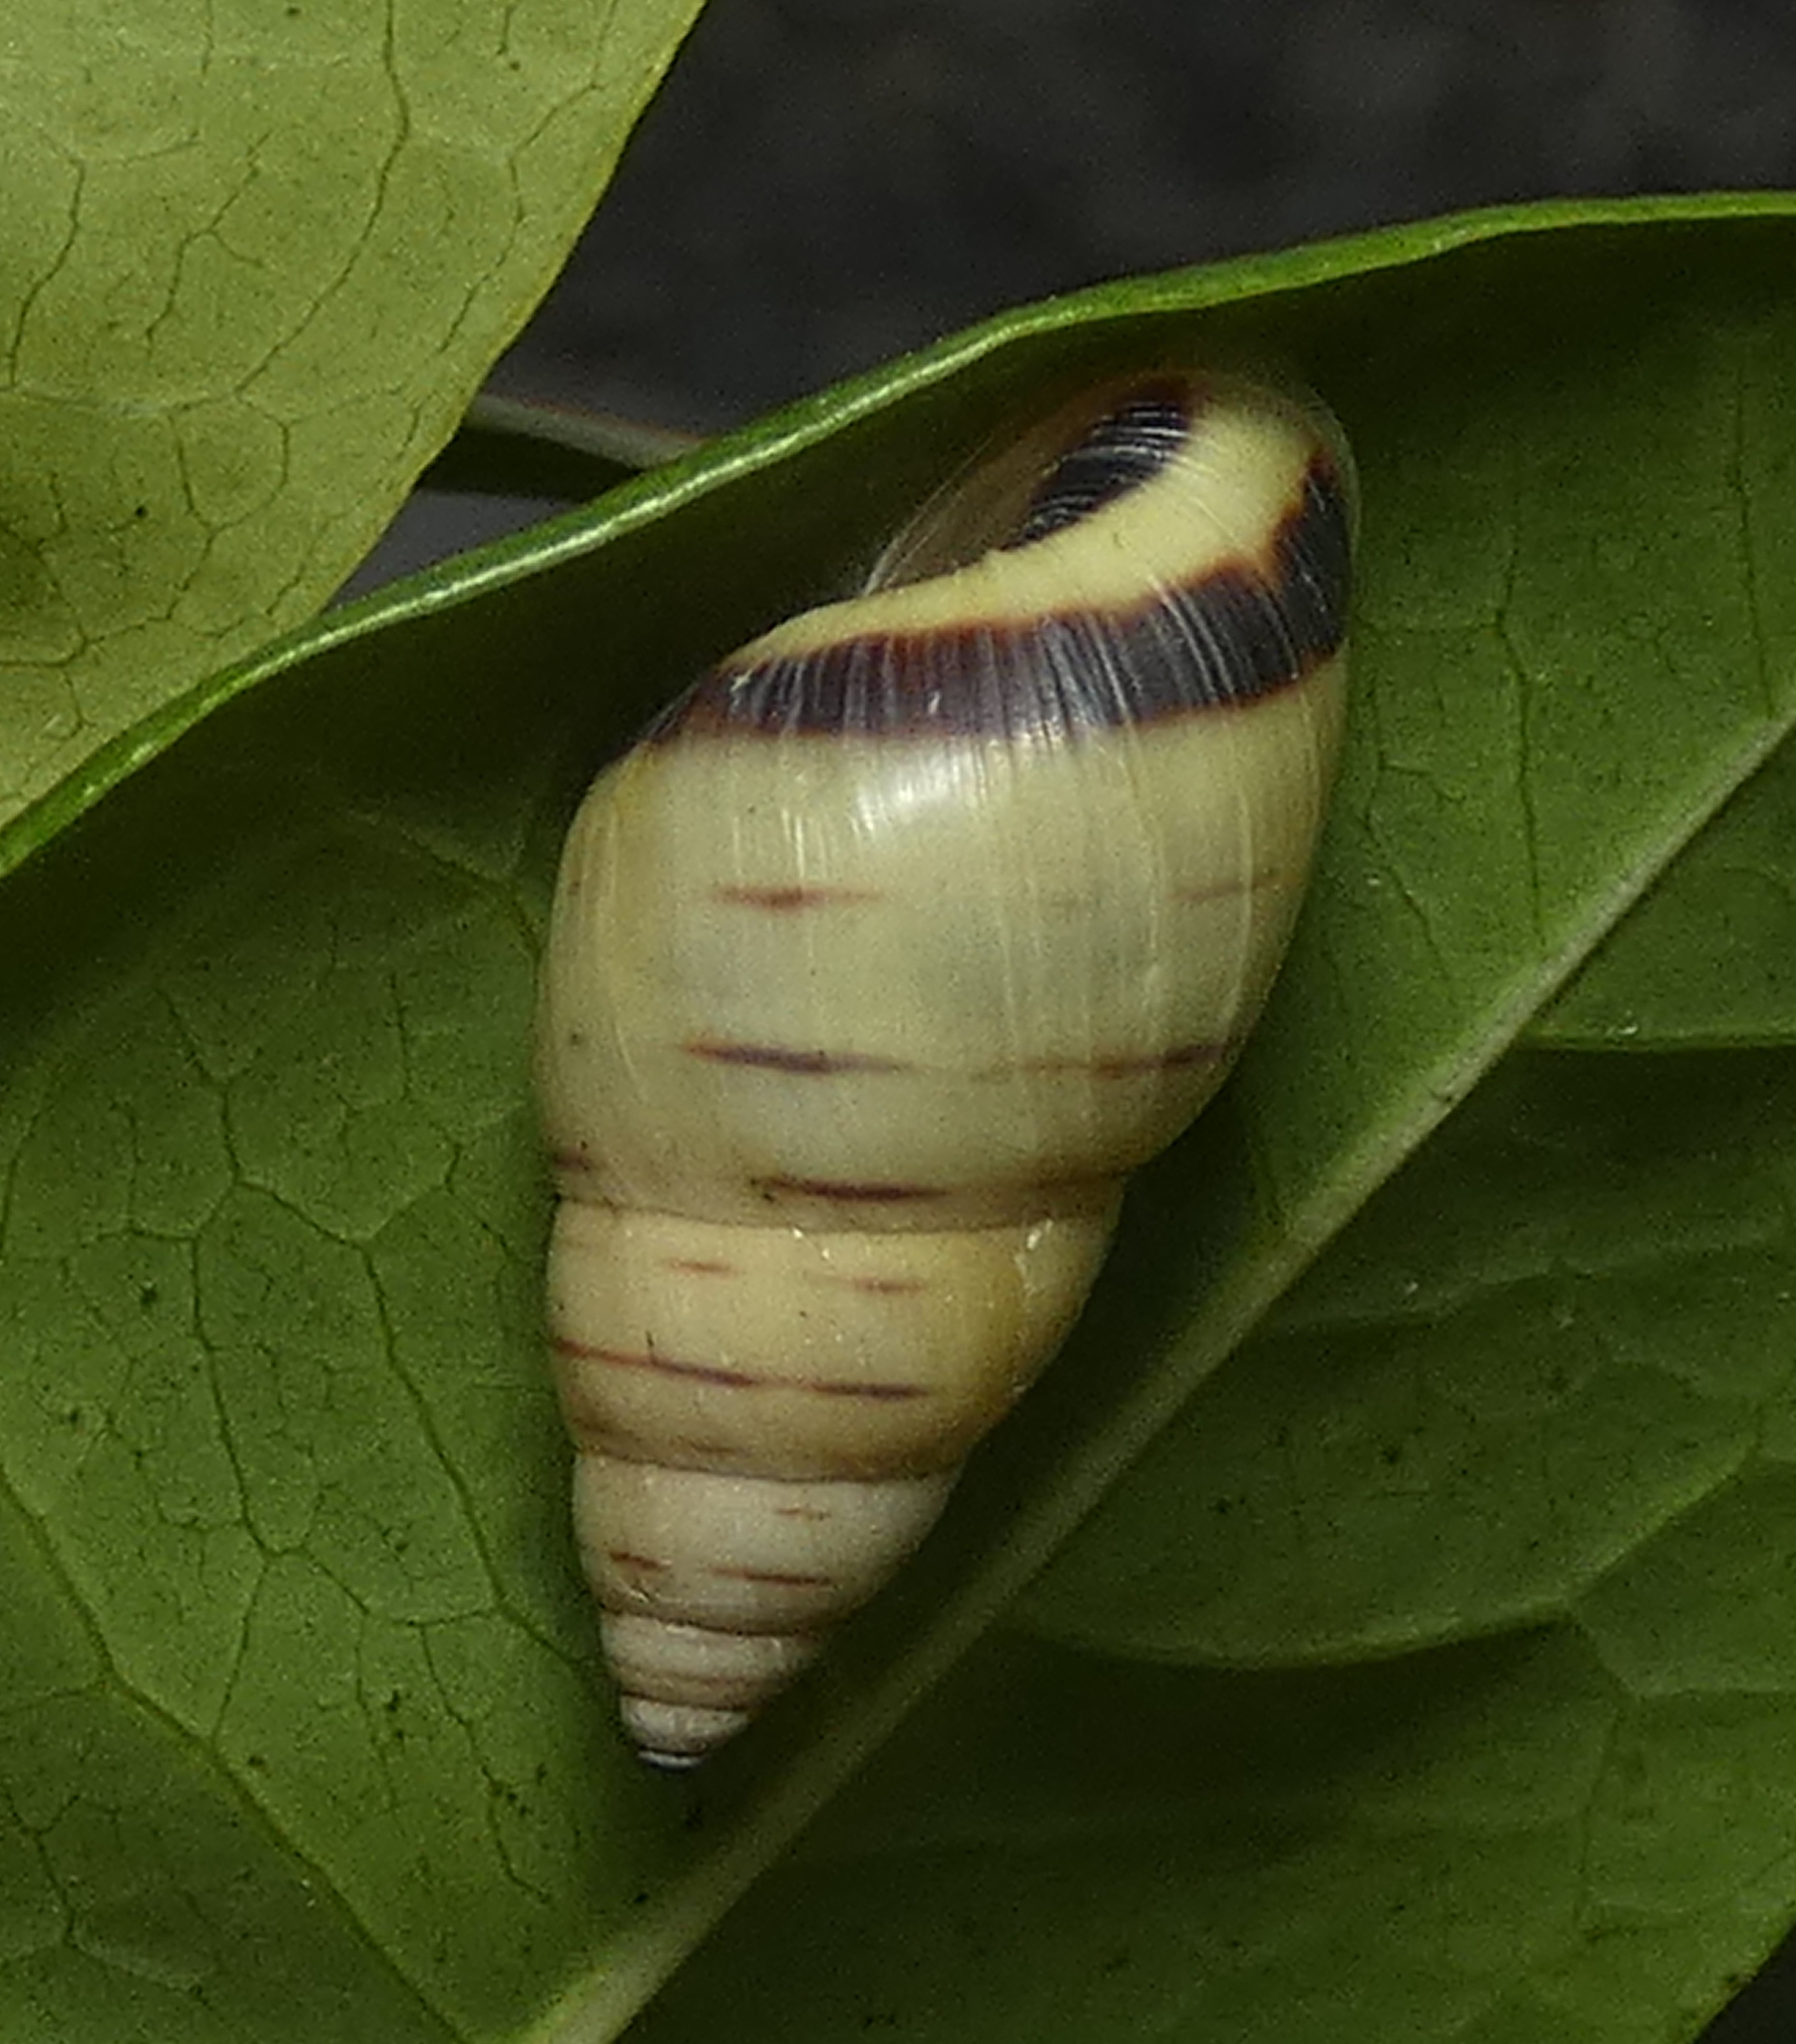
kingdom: Animalia
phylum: Mollusca
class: Gastropoda
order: Stylommatophora
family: Bulimulidae
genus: Drymaeus
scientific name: Drymaeus
